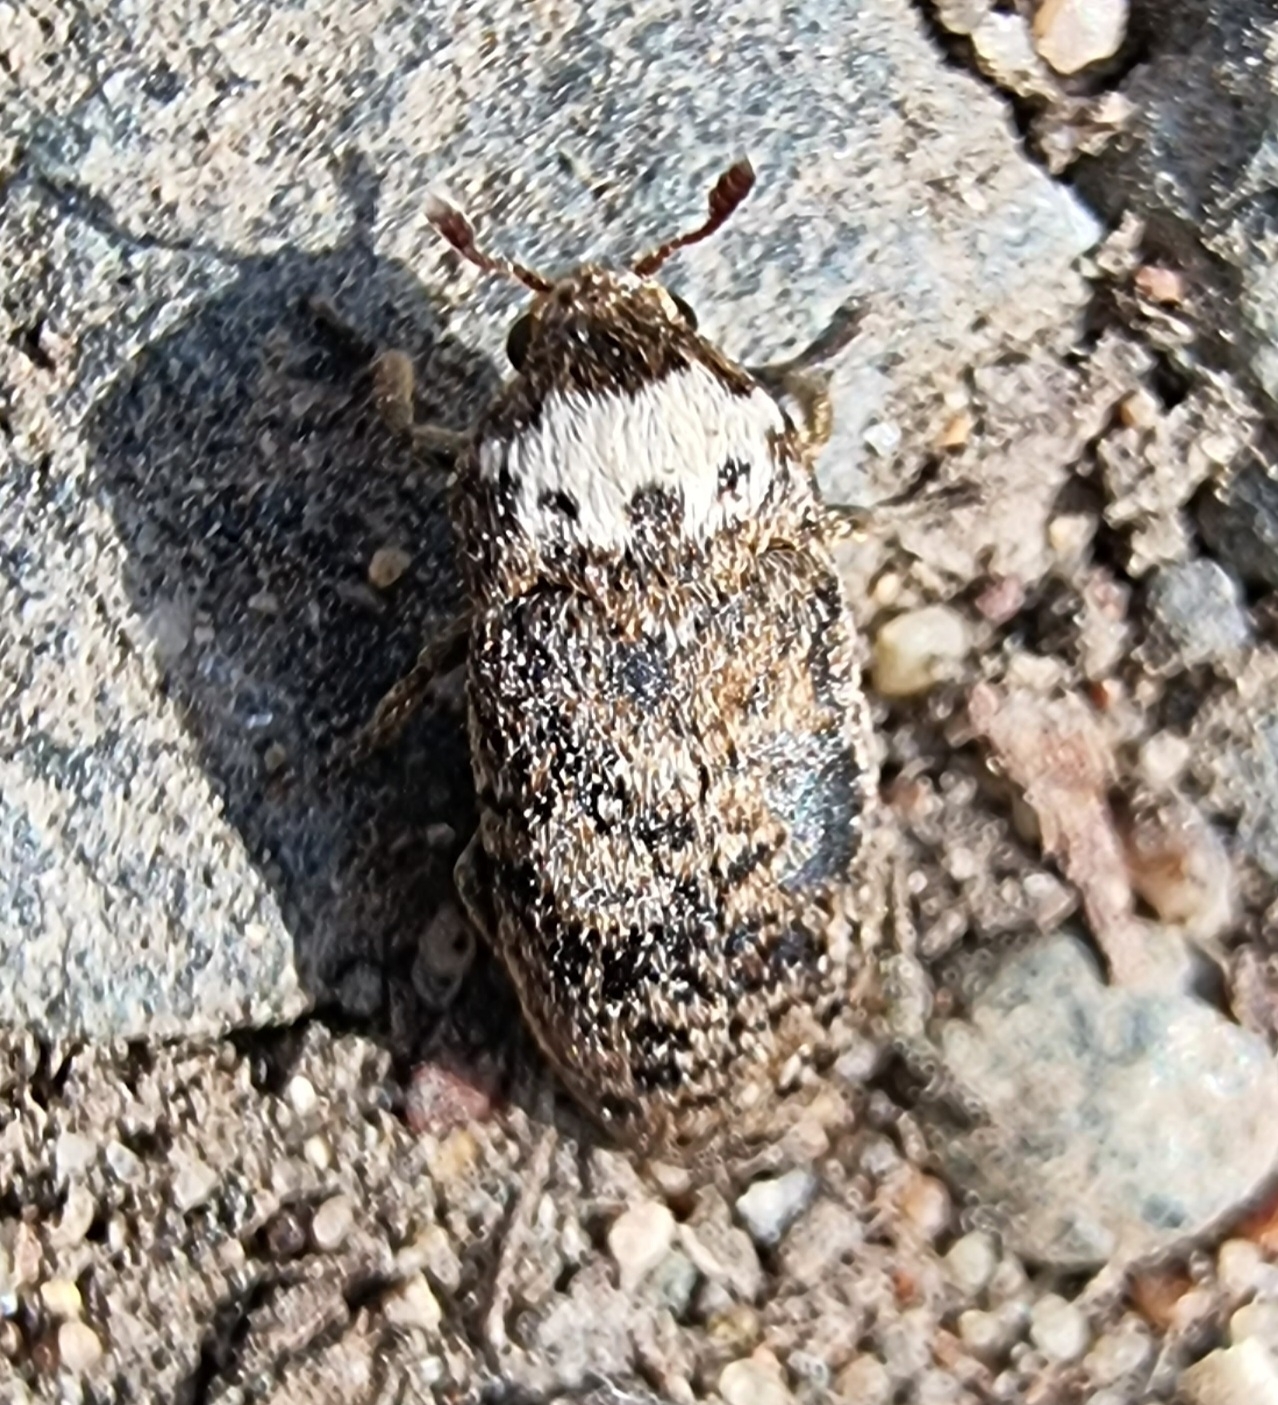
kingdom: Animalia
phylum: Arthropoda
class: Insecta
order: Coleoptera
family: Dermestidae
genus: Dermestes
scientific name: Dermestes coronatus
